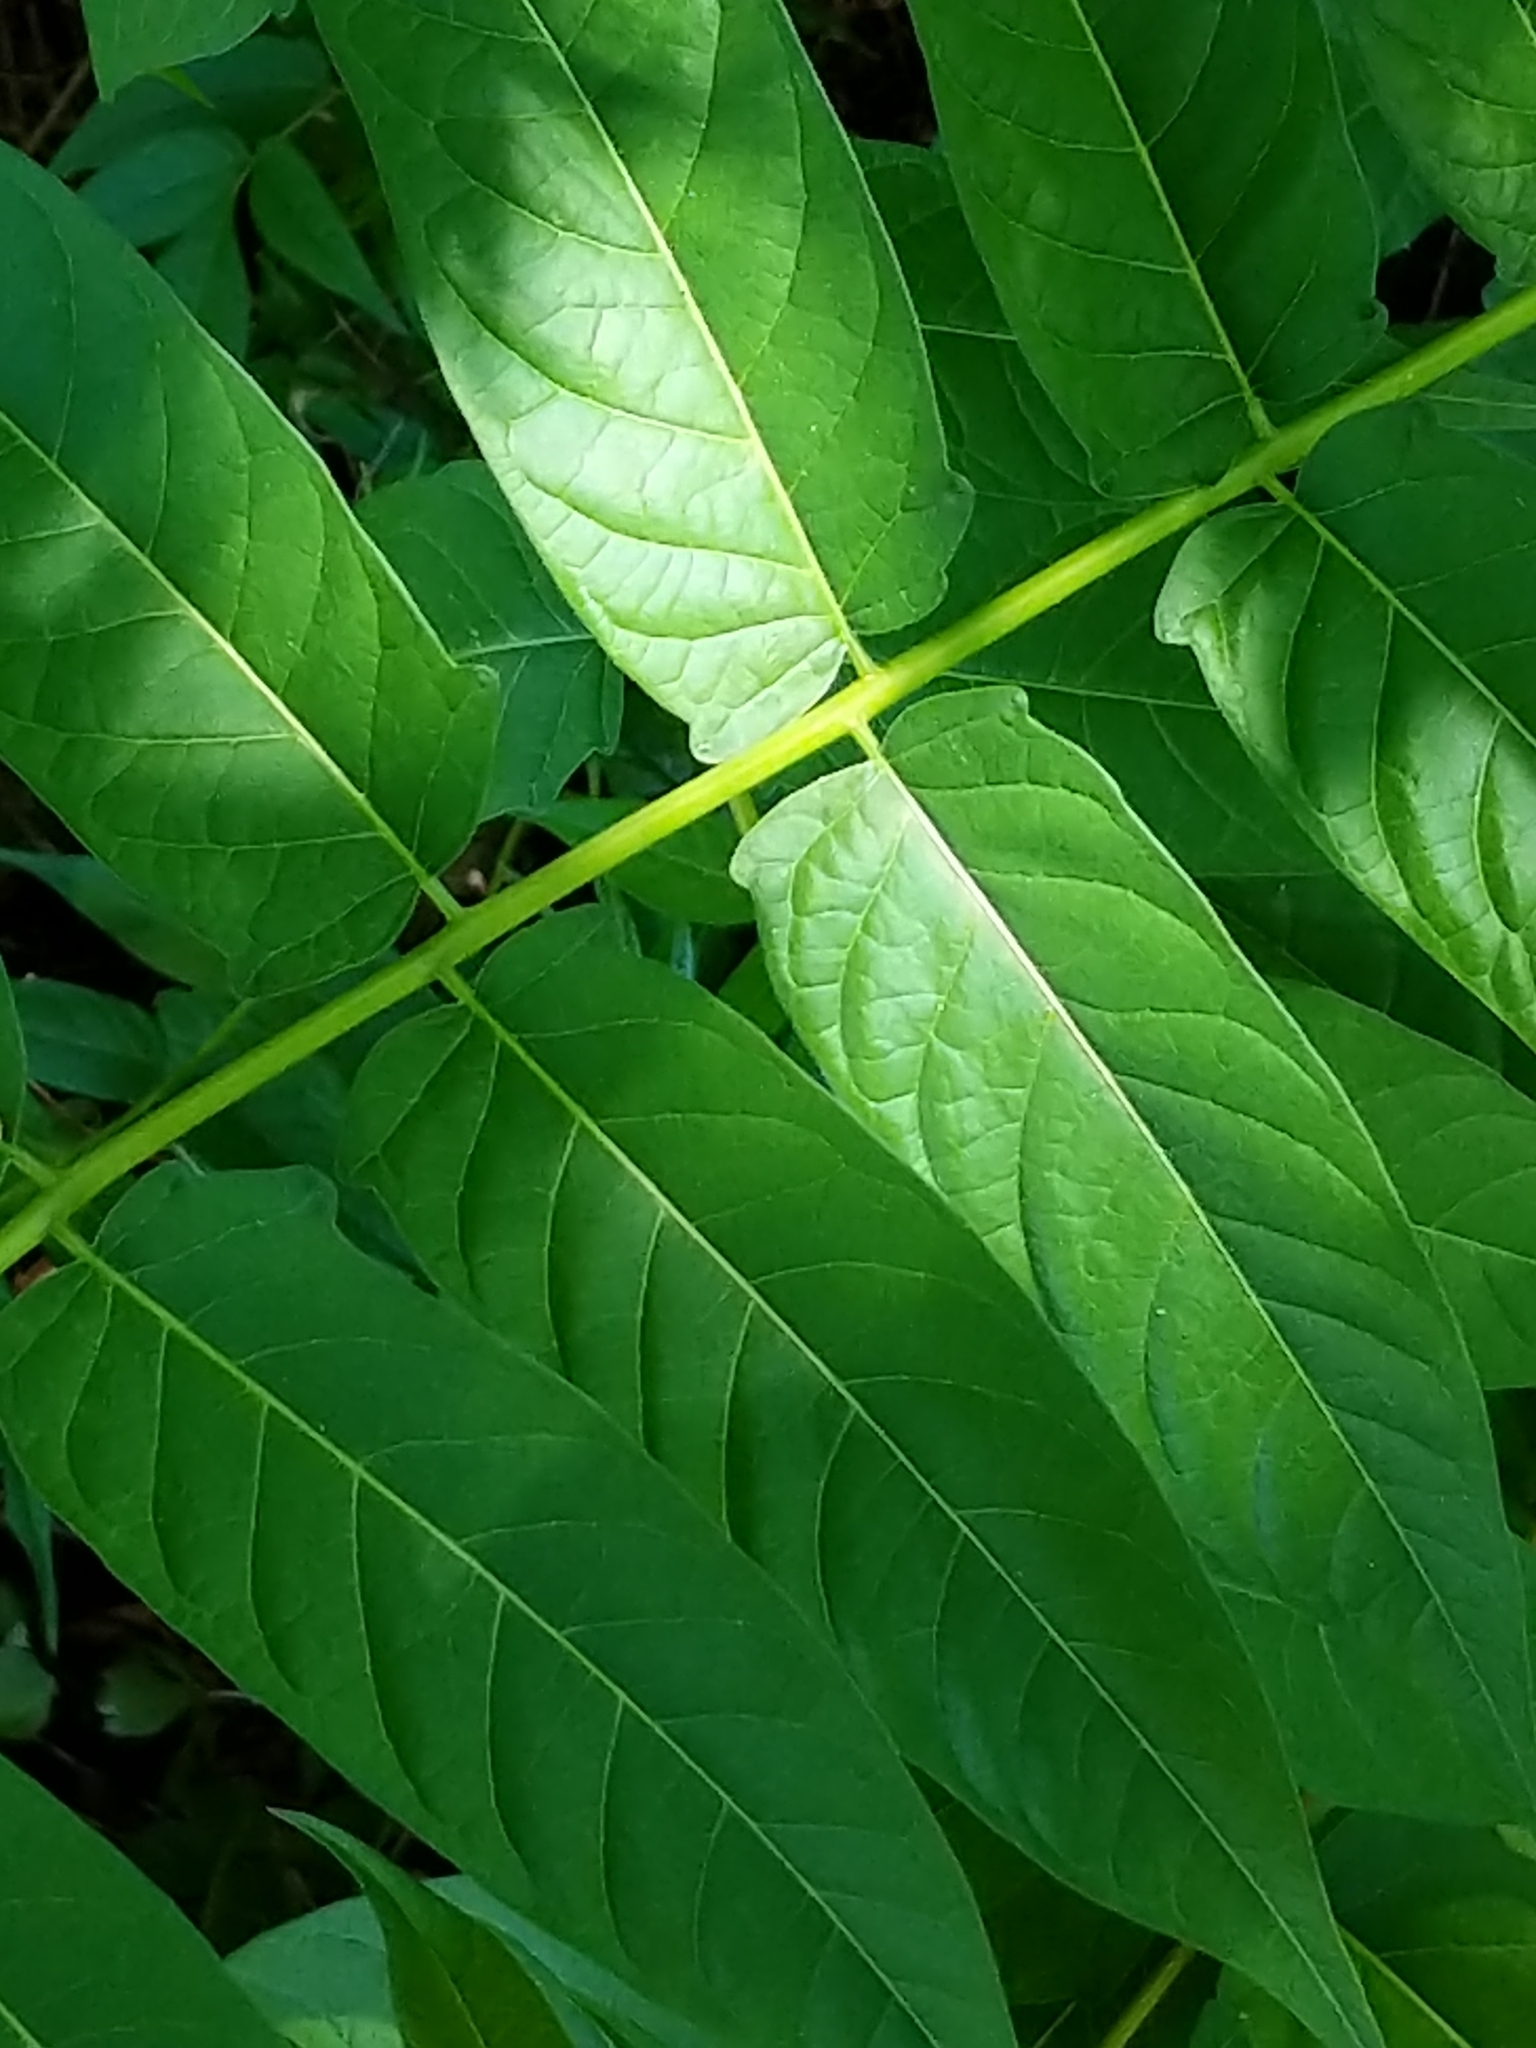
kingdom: Plantae
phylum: Tracheophyta
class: Magnoliopsida
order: Sapindales
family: Simaroubaceae
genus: Ailanthus
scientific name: Ailanthus altissima
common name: Tree-of-heaven
